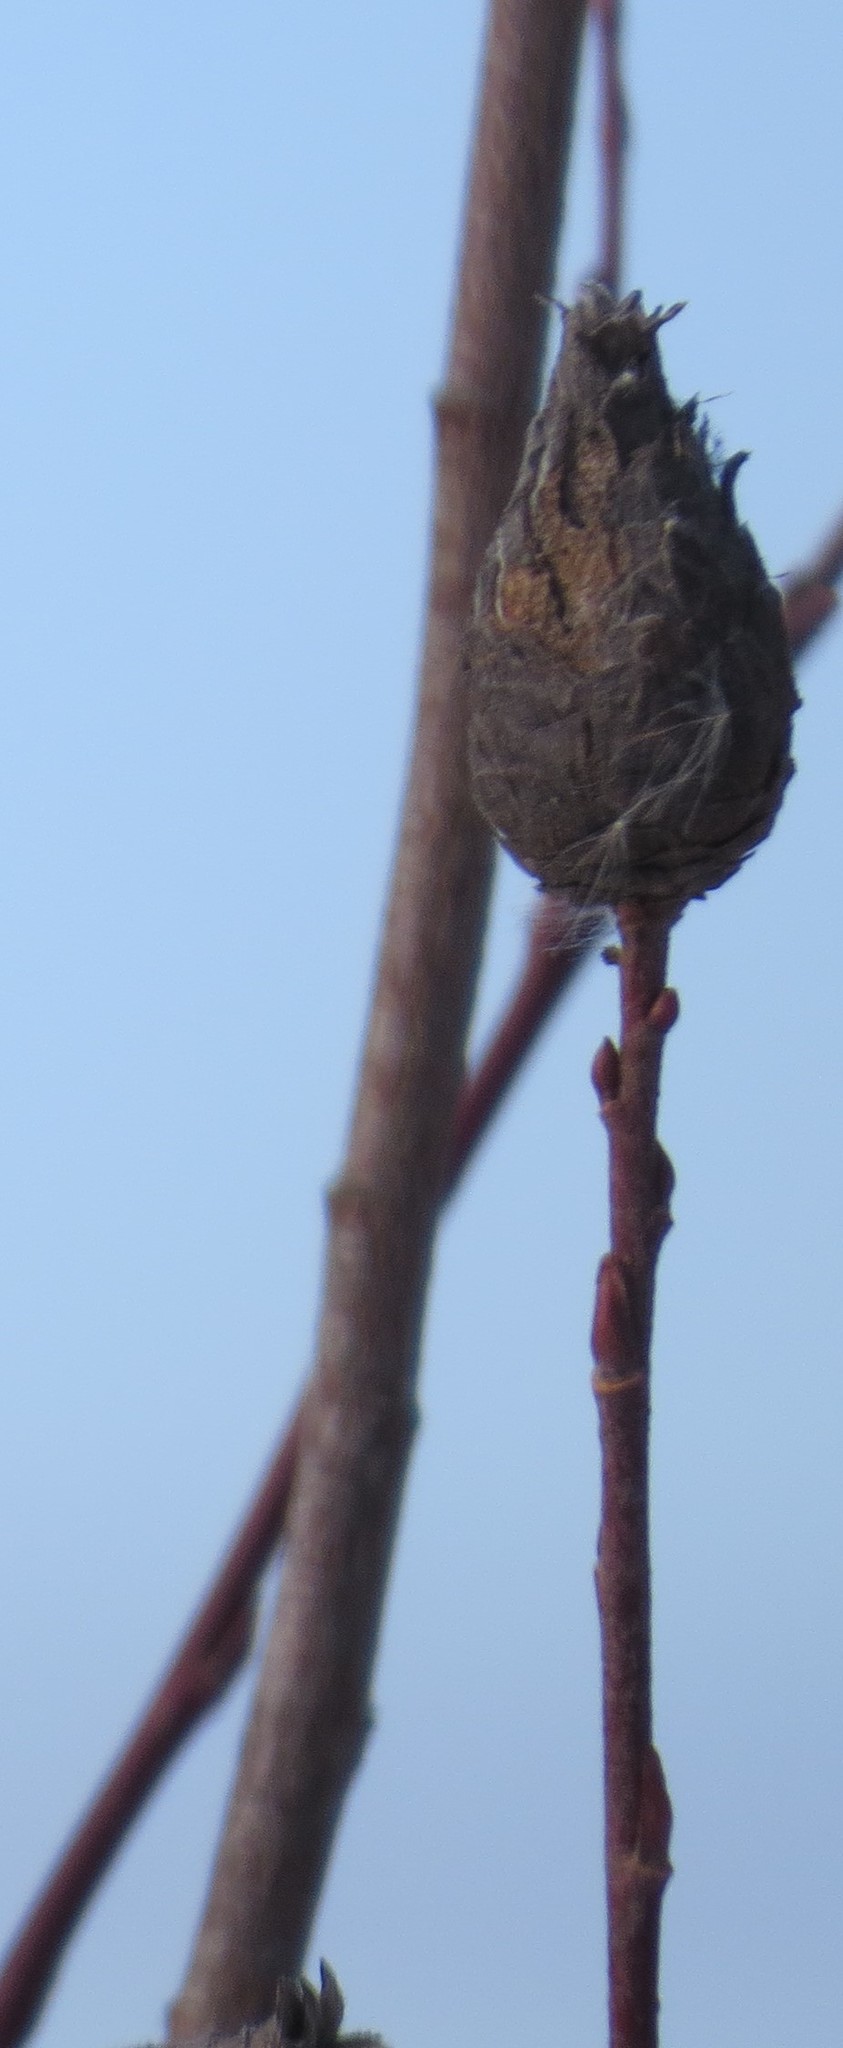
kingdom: Animalia
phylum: Arthropoda
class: Insecta
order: Diptera
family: Cecidomyiidae
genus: Rabdophaga
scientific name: Rabdophaga strobiloides
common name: Willow pinecone gall midge
